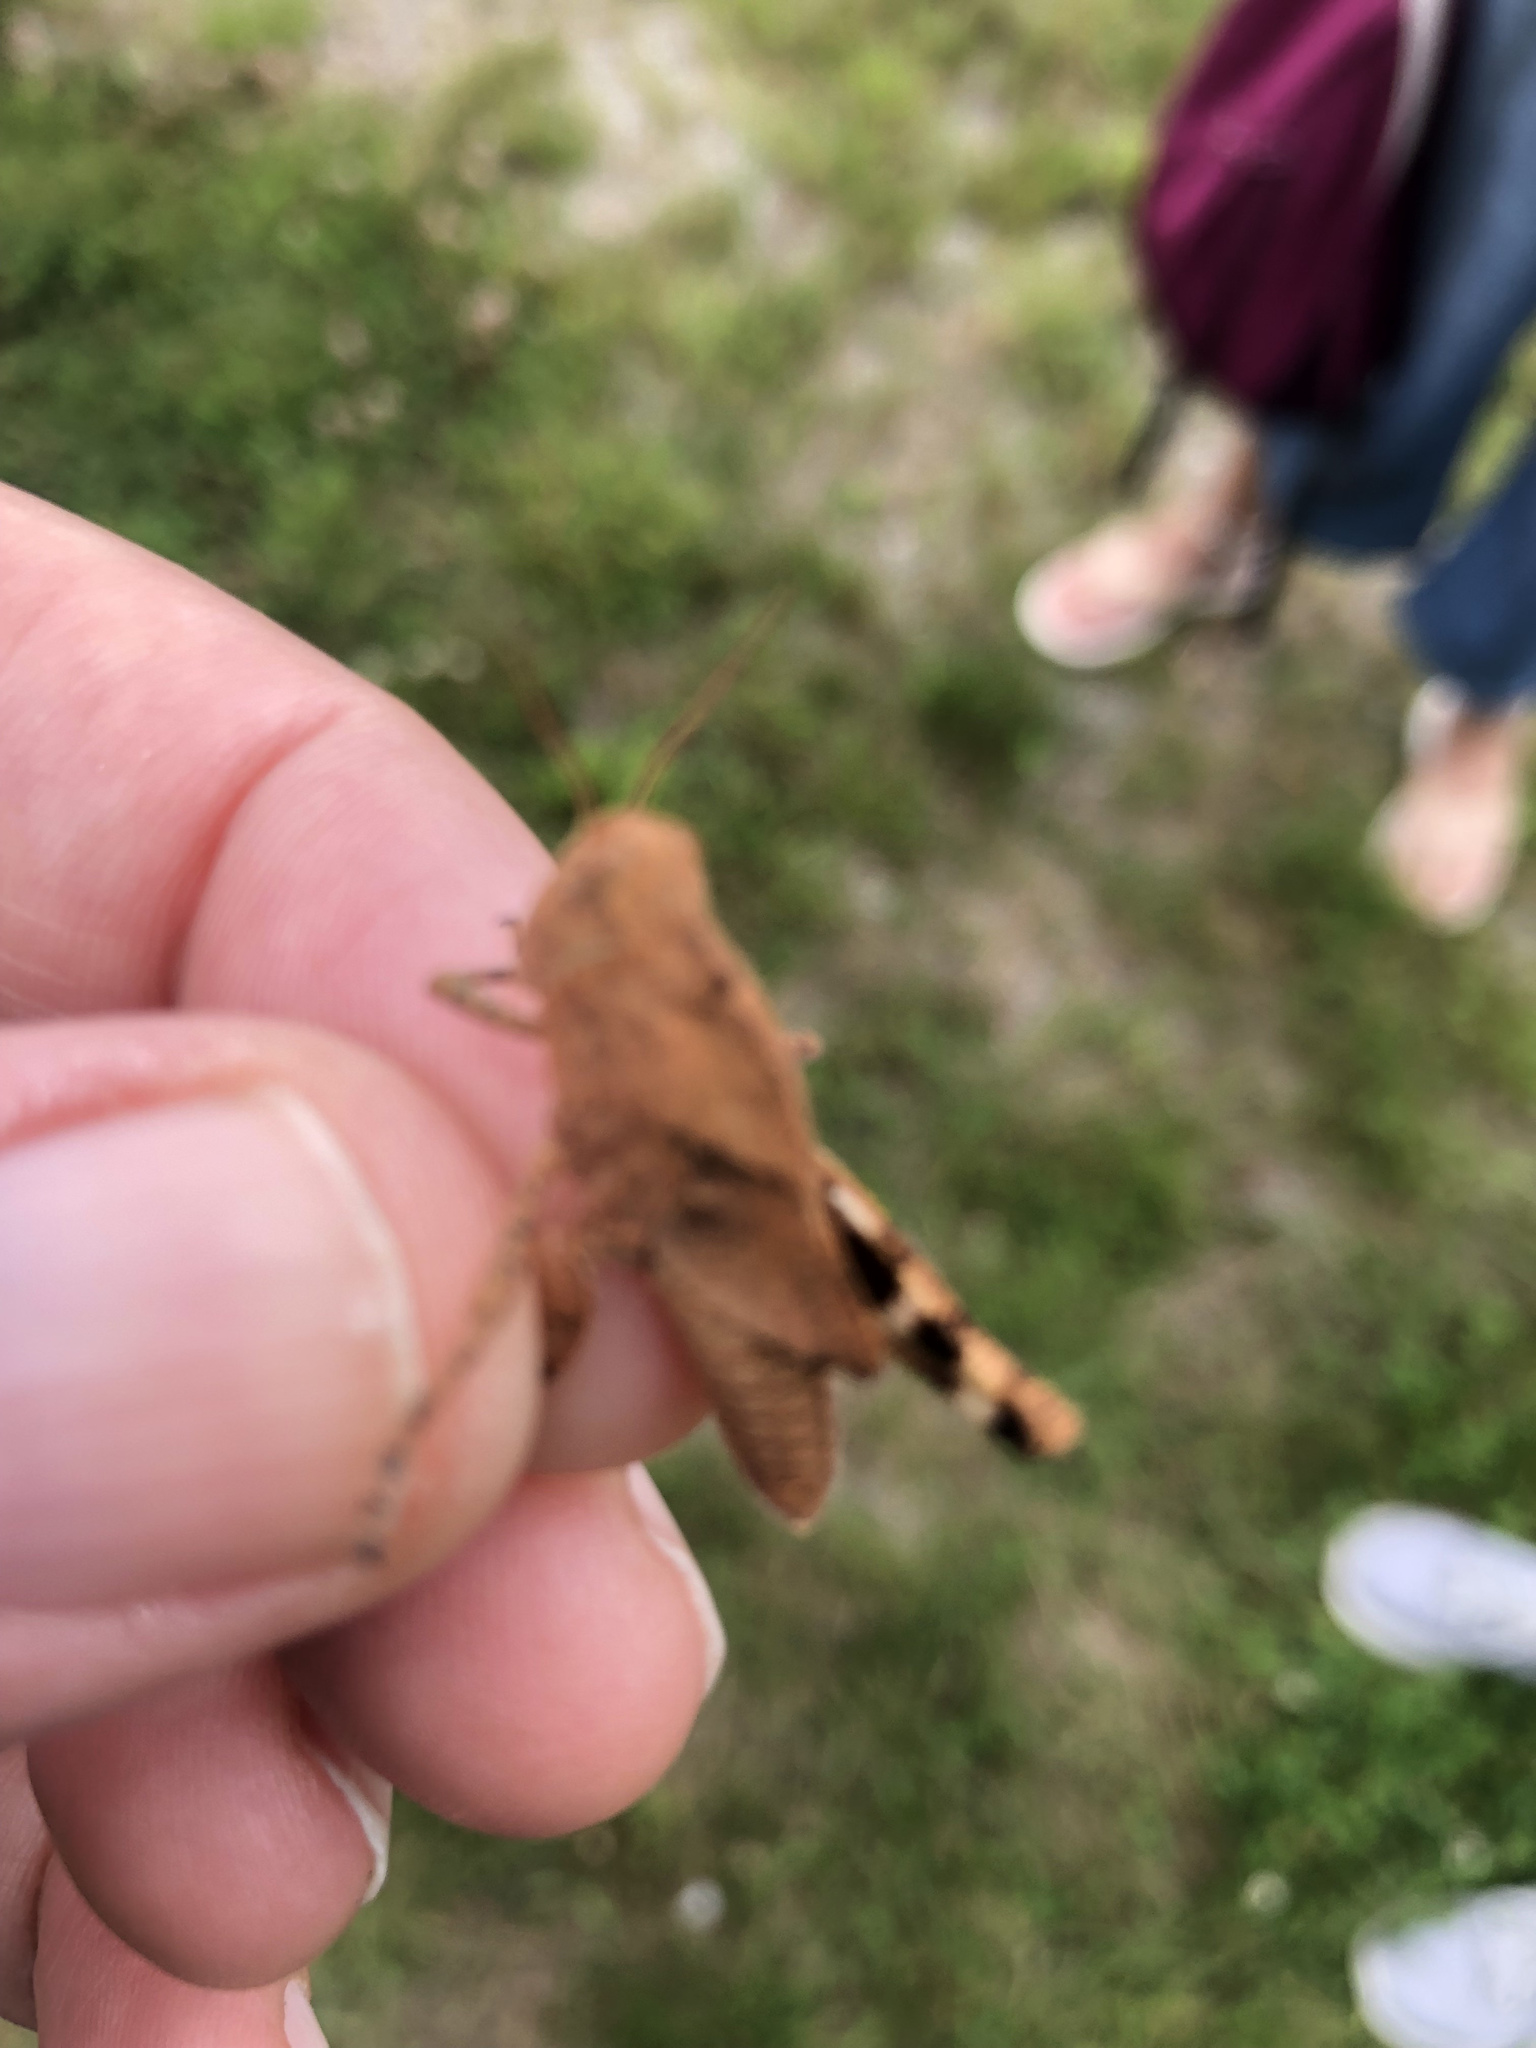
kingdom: Animalia
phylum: Arthropoda
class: Insecta
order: Orthoptera
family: Acrididae
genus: Dissosteira
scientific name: Dissosteira carolina
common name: Carolina grasshopper
